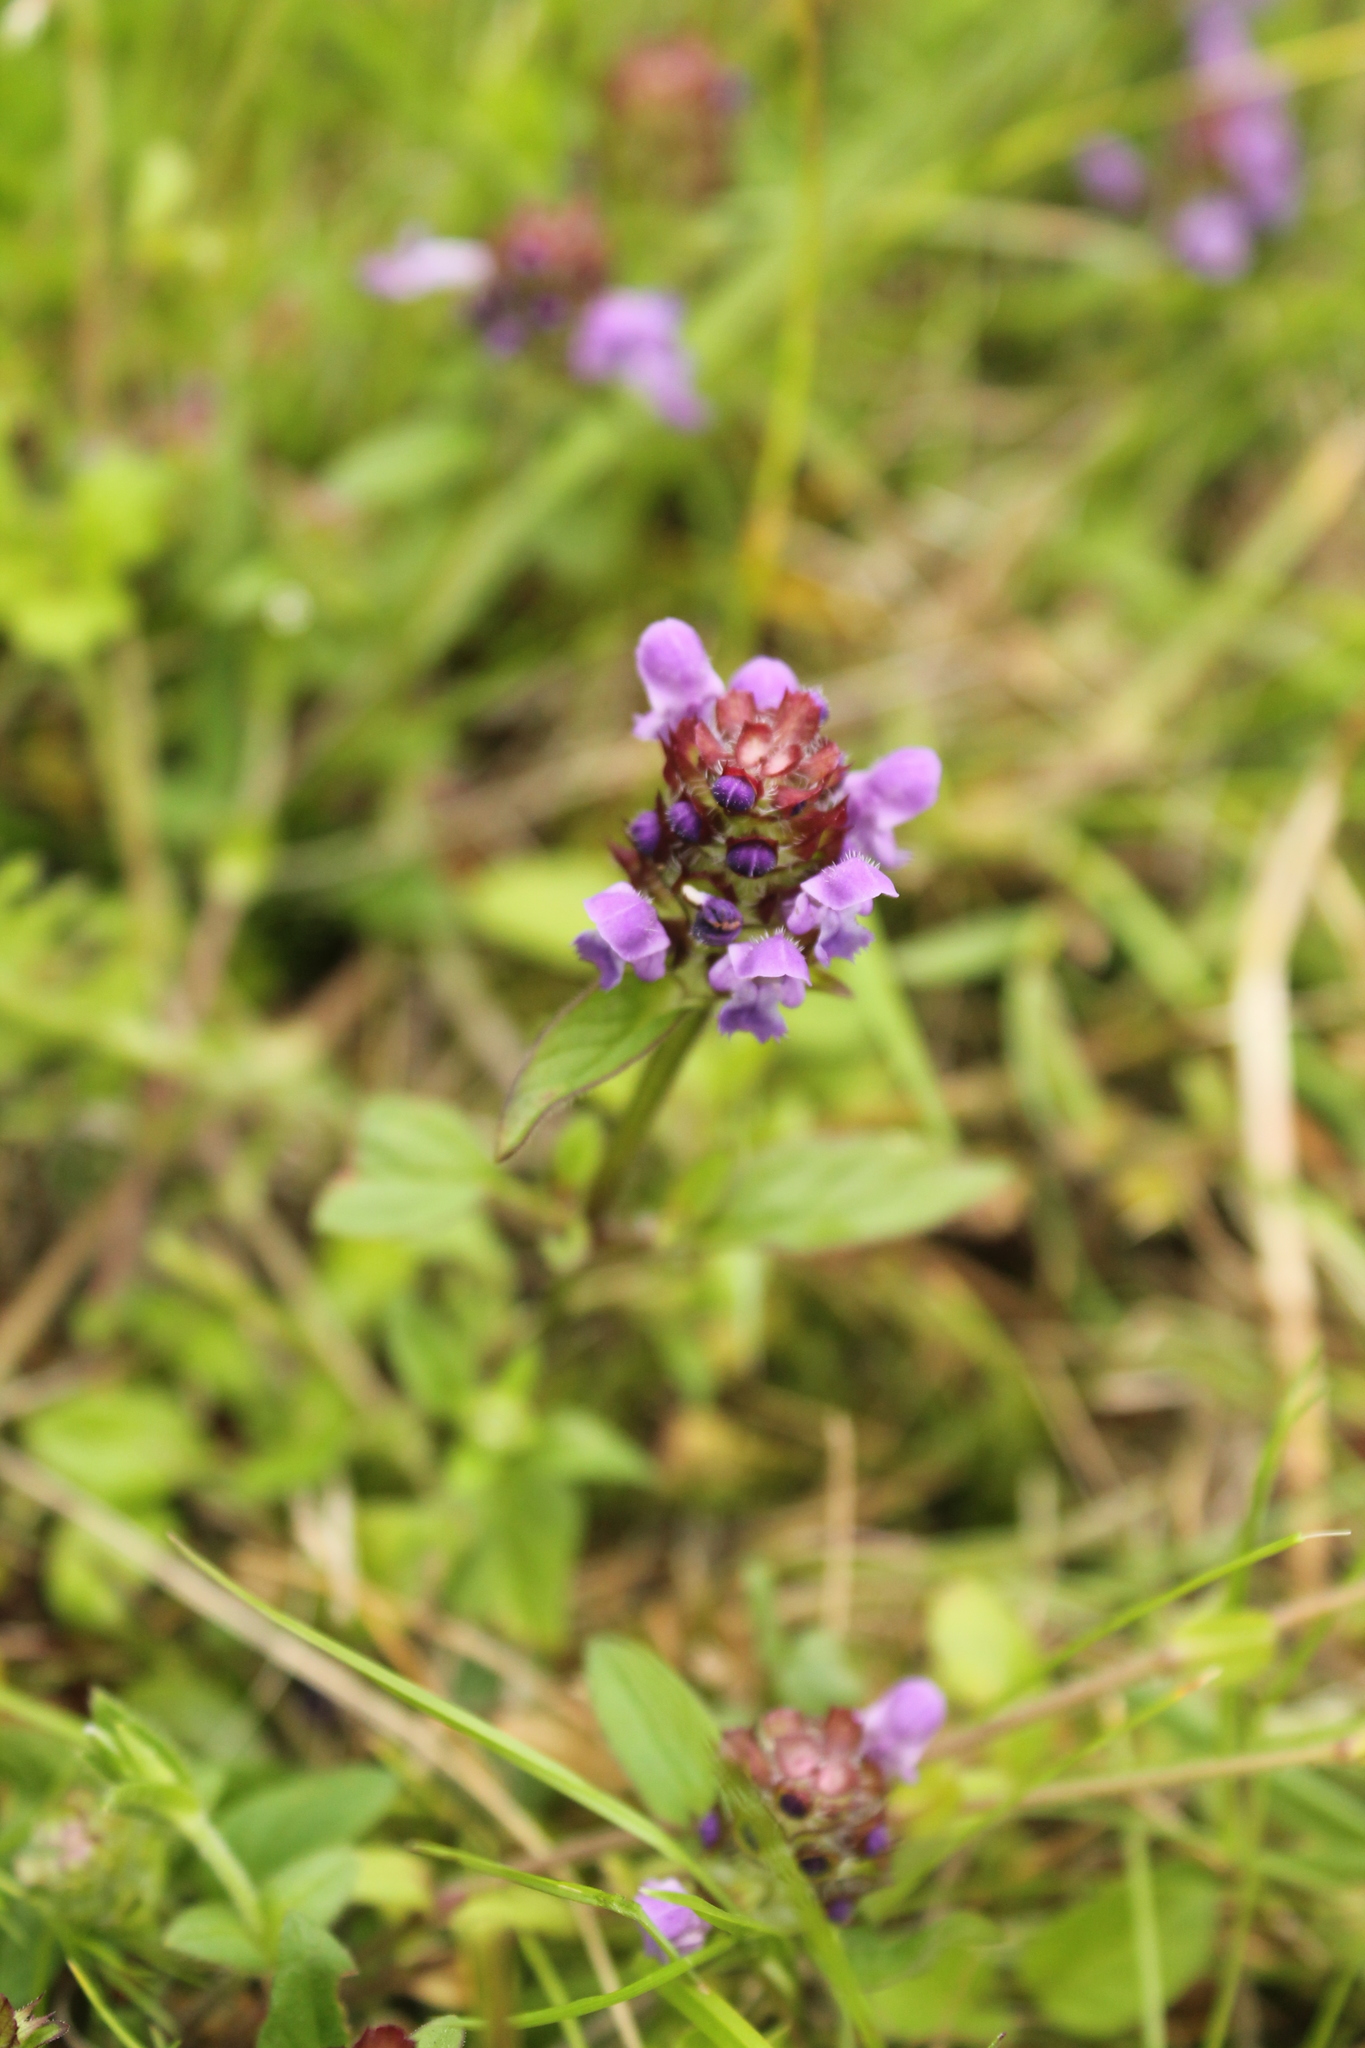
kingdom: Plantae
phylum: Tracheophyta
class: Magnoliopsida
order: Lamiales
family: Lamiaceae
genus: Prunella
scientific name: Prunella vulgaris
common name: Heal-all
